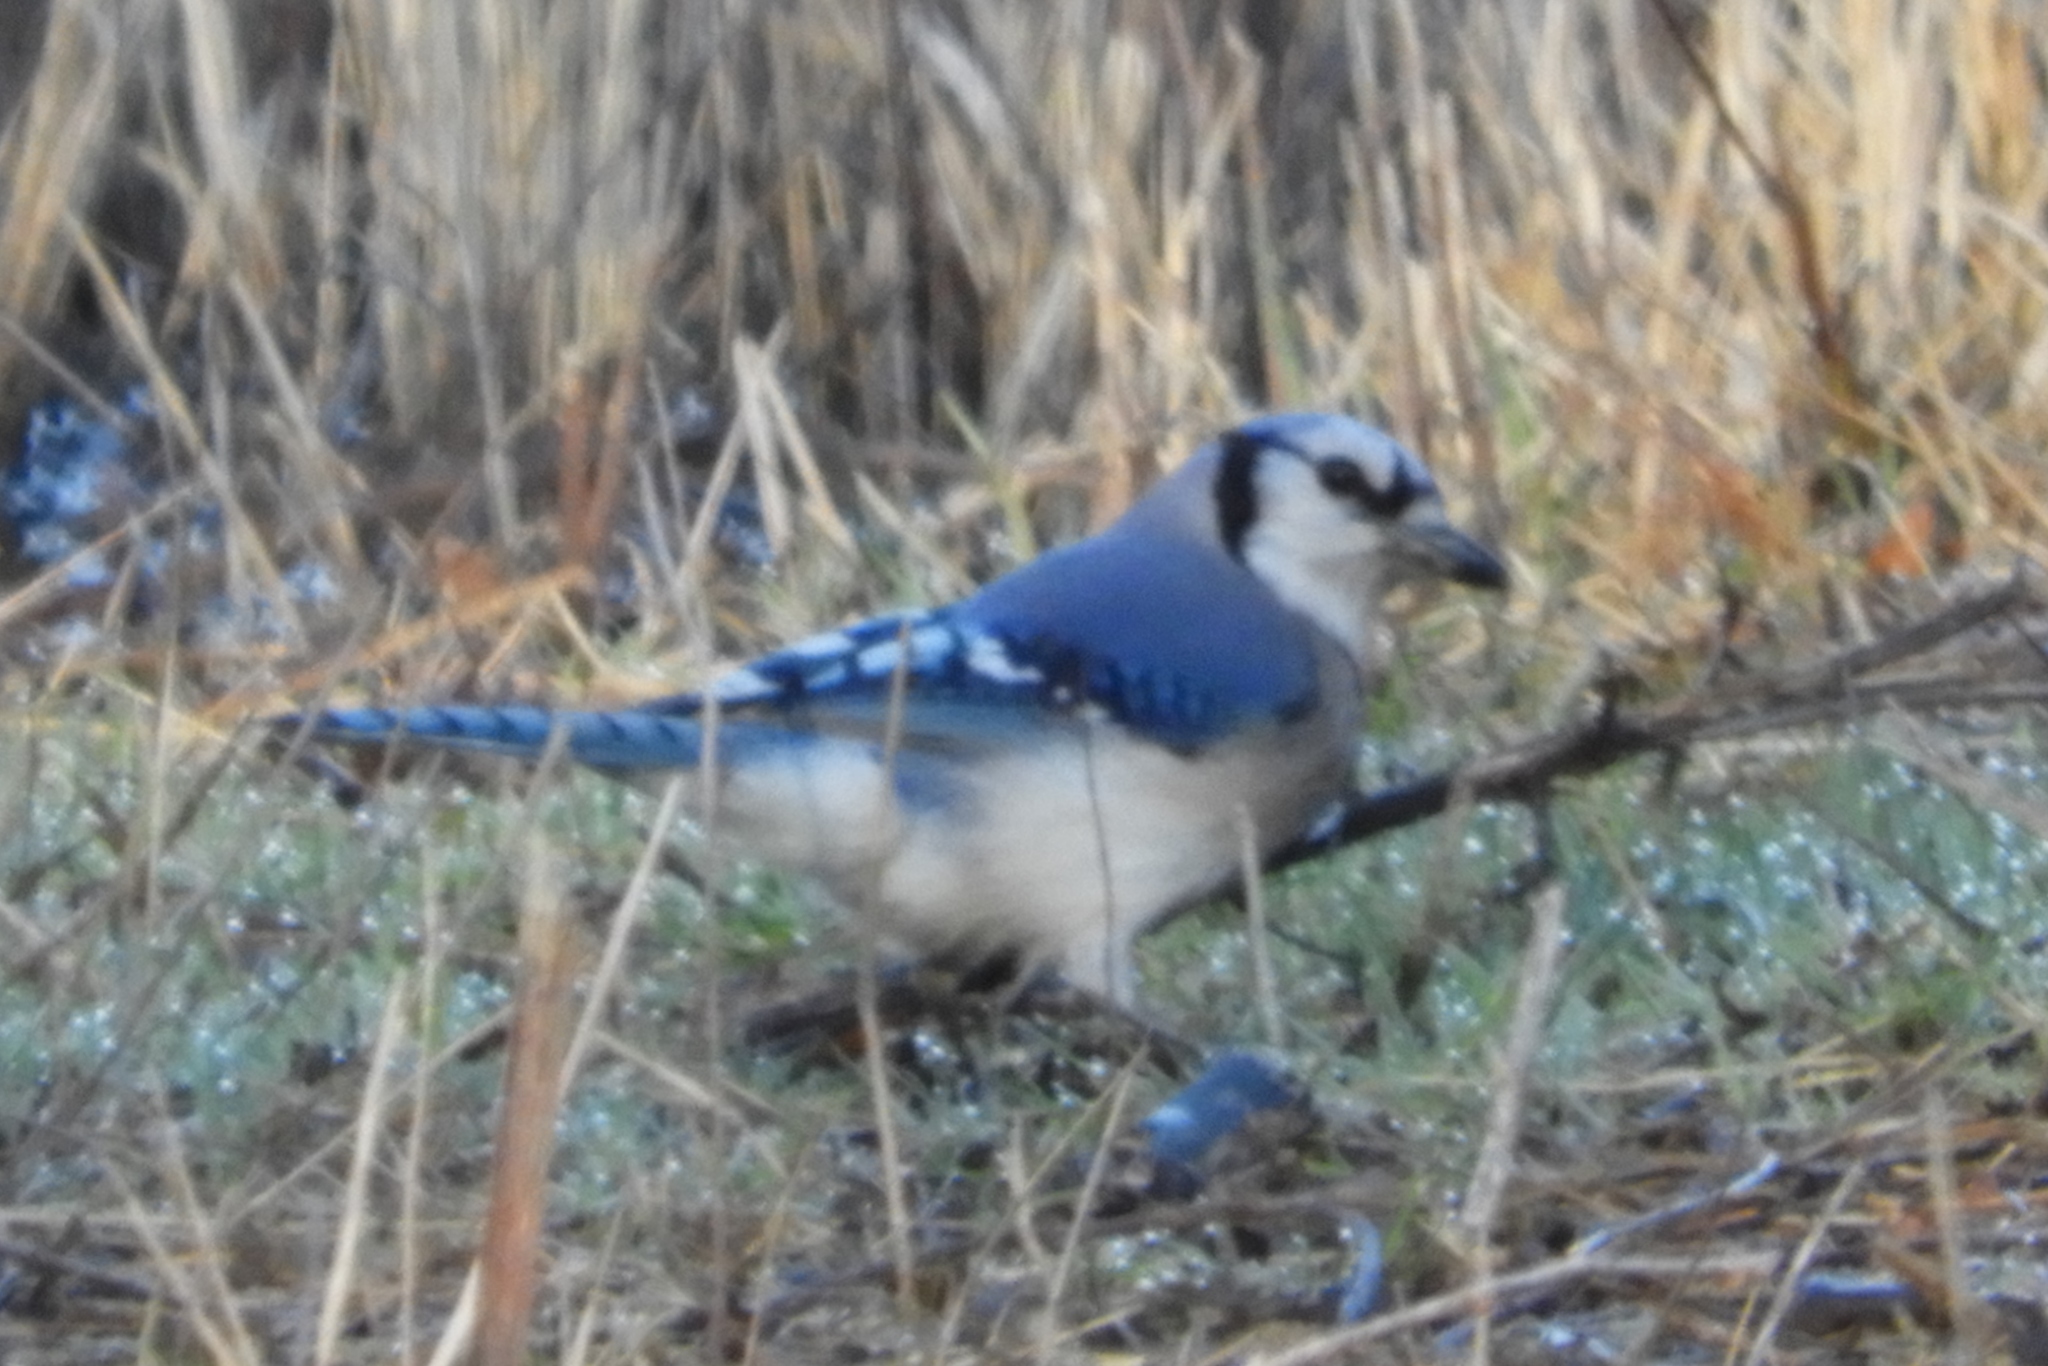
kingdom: Animalia
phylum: Chordata
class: Aves
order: Passeriformes
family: Corvidae
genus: Cyanocitta
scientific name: Cyanocitta cristata
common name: Blue jay
